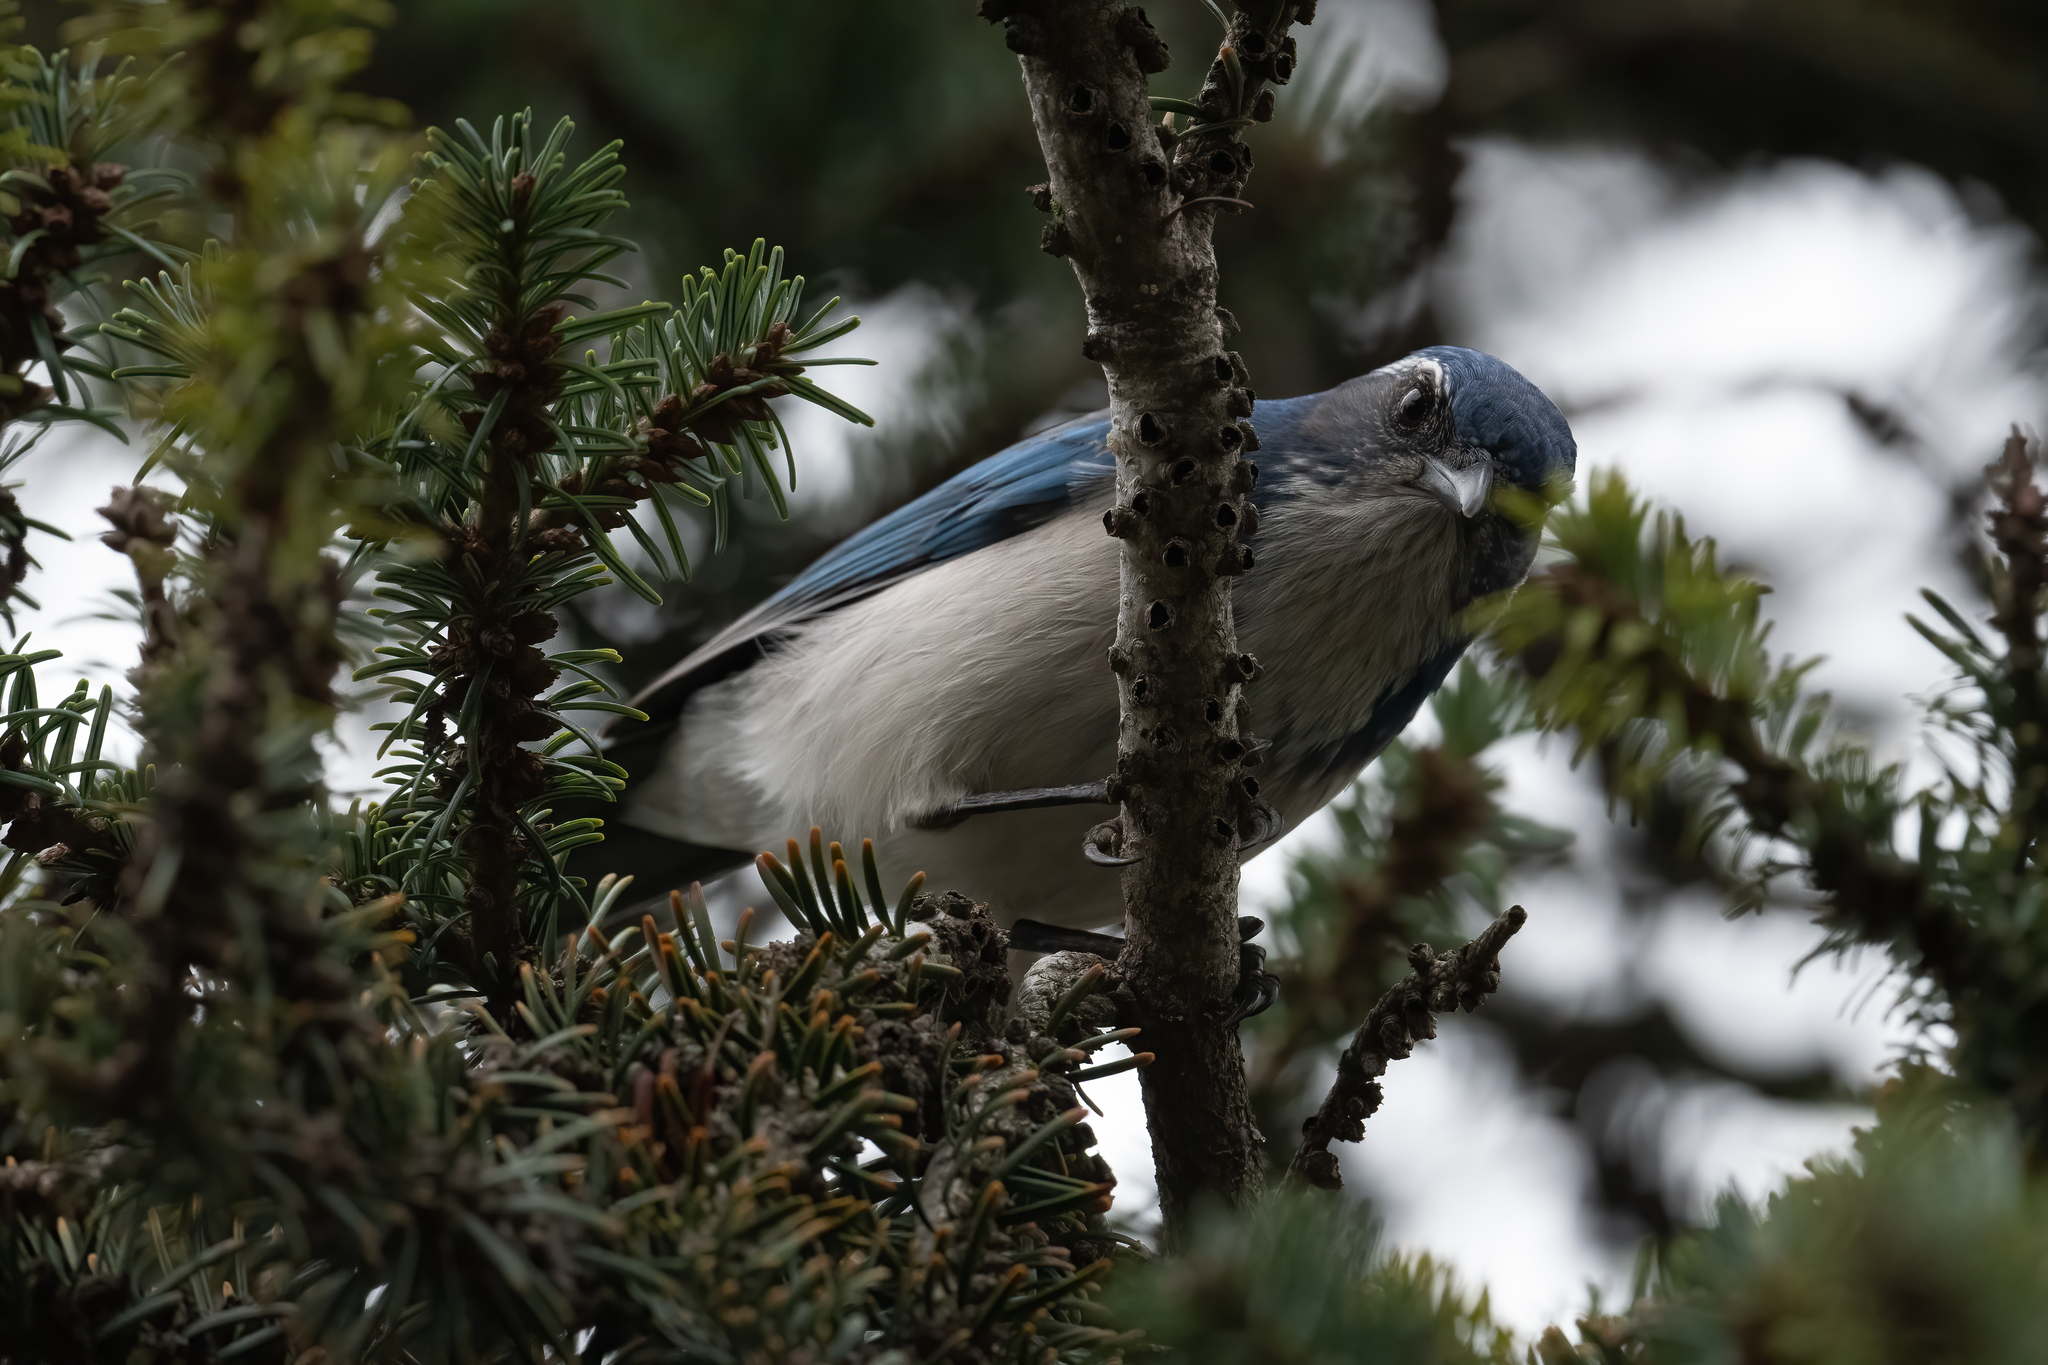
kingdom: Animalia
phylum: Chordata
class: Aves
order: Passeriformes
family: Corvidae
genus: Aphelocoma
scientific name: Aphelocoma californica
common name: California scrub-jay
